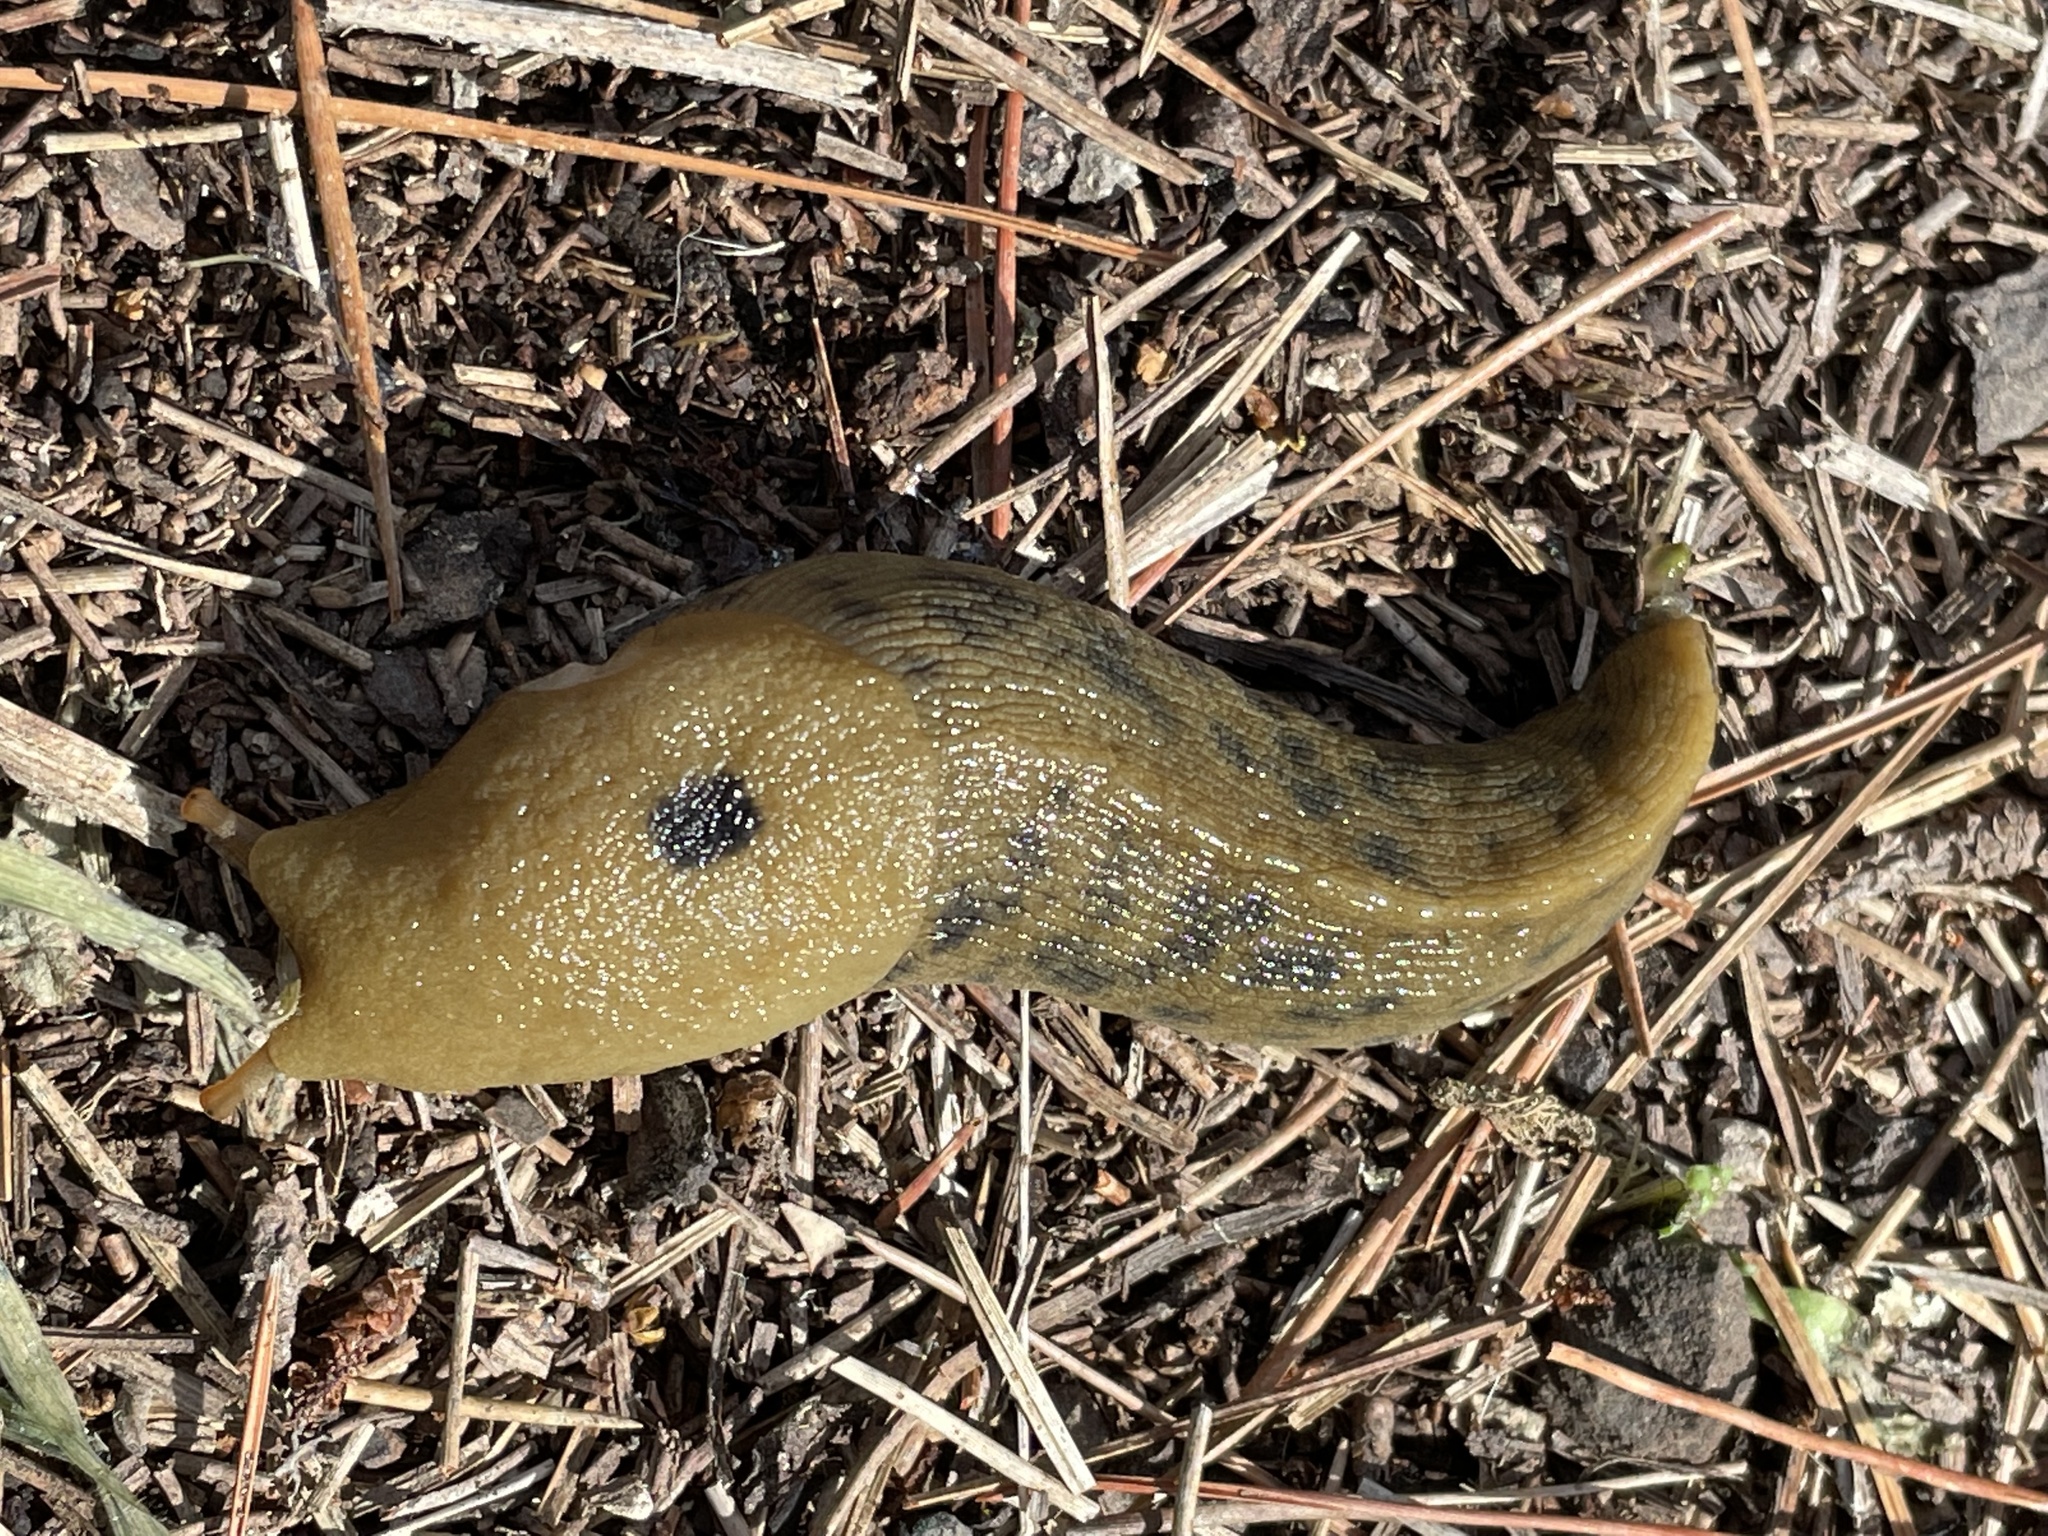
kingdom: Animalia
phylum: Mollusca
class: Gastropoda
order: Stylommatophora
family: Ariolimacidae
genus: Ariolimax
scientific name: Ariolimax buttoni
